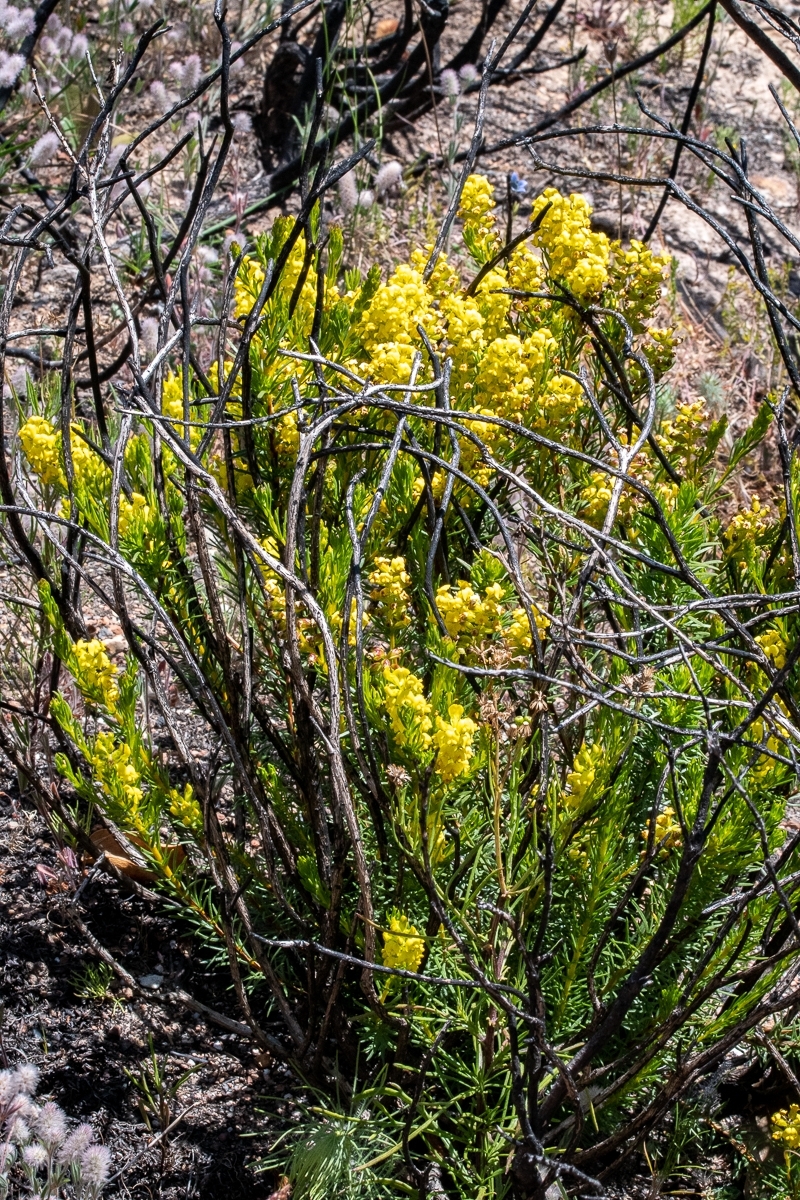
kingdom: Plantae
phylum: Tracheophyta
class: Magnoliopsida
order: Fabales
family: Fabaceae
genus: Aspalathus
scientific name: Aspalathus callosa
